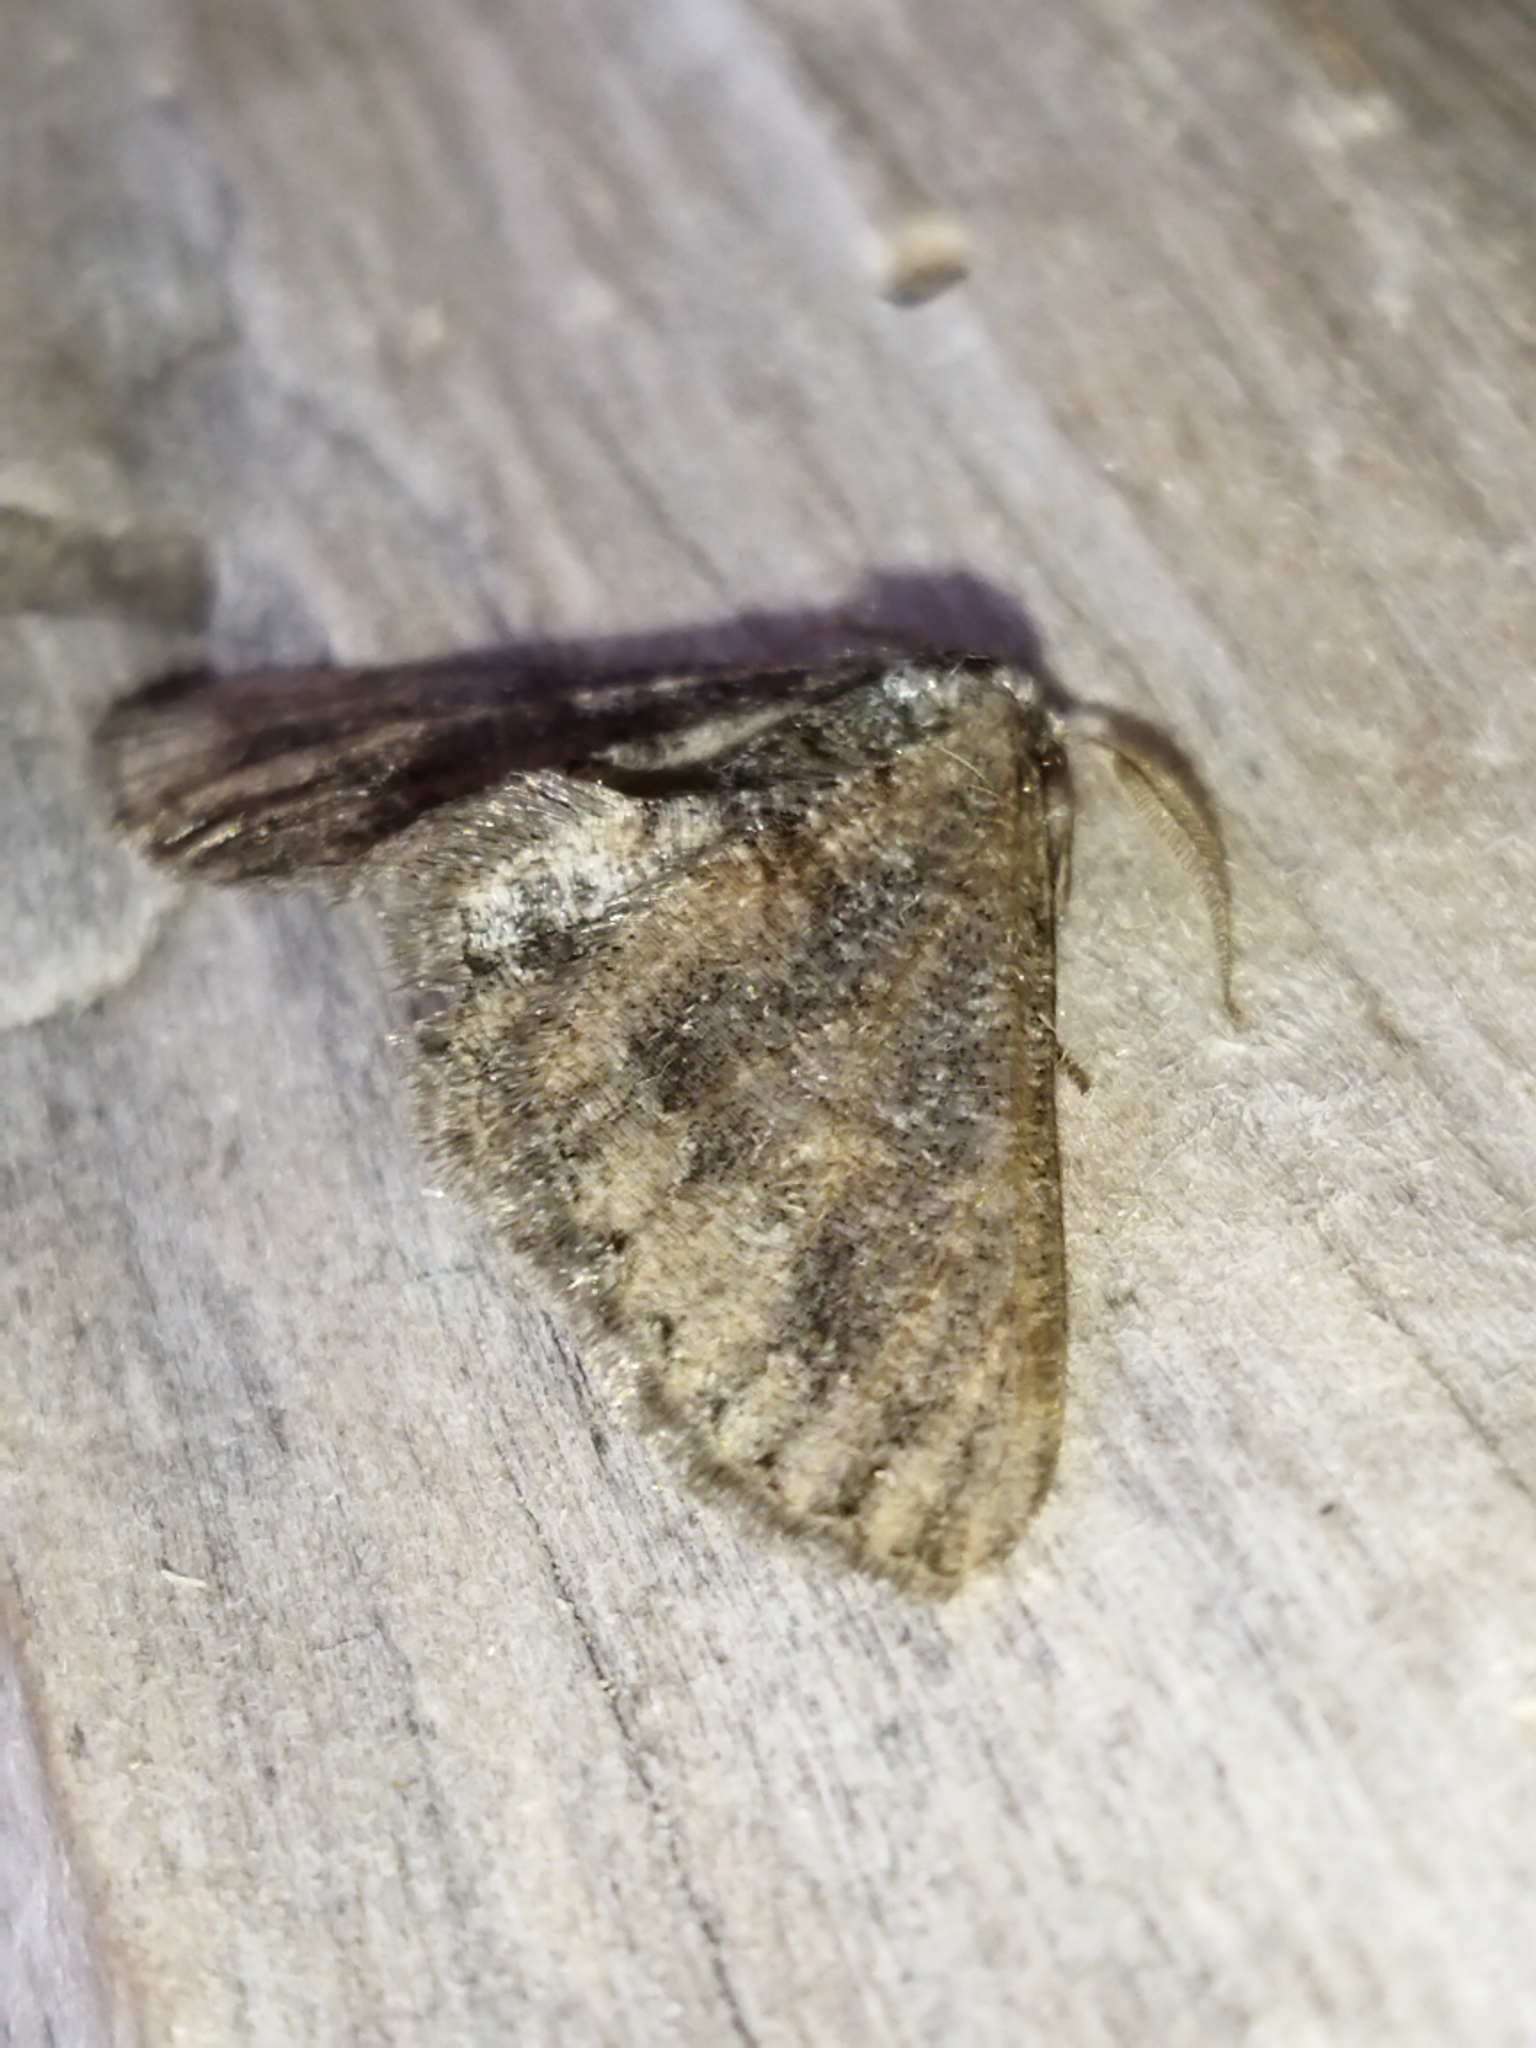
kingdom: Animalia
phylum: Arthropoda
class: Insecta
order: Lepidoptera
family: Geometridae
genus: Agriopis
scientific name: Agriopis bajaria
